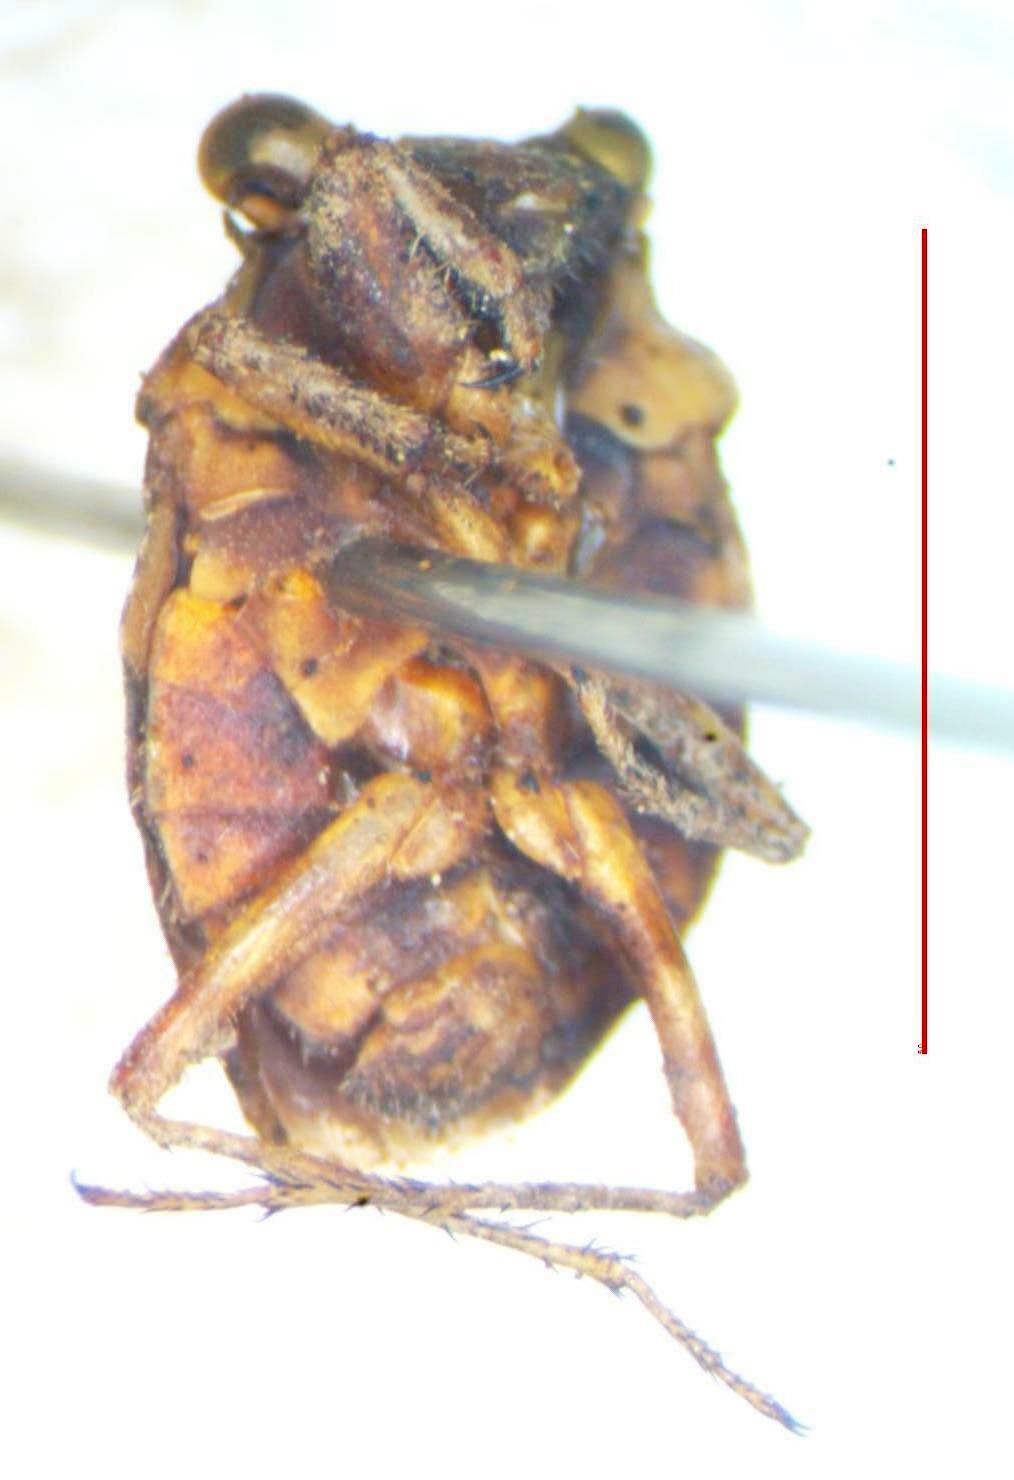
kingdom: Animalia
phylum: Arthropoda
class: Insecta
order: Hemiptera
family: Gelastocoridae
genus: Gelastocoris
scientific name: Gelastocoris hungerfordi
